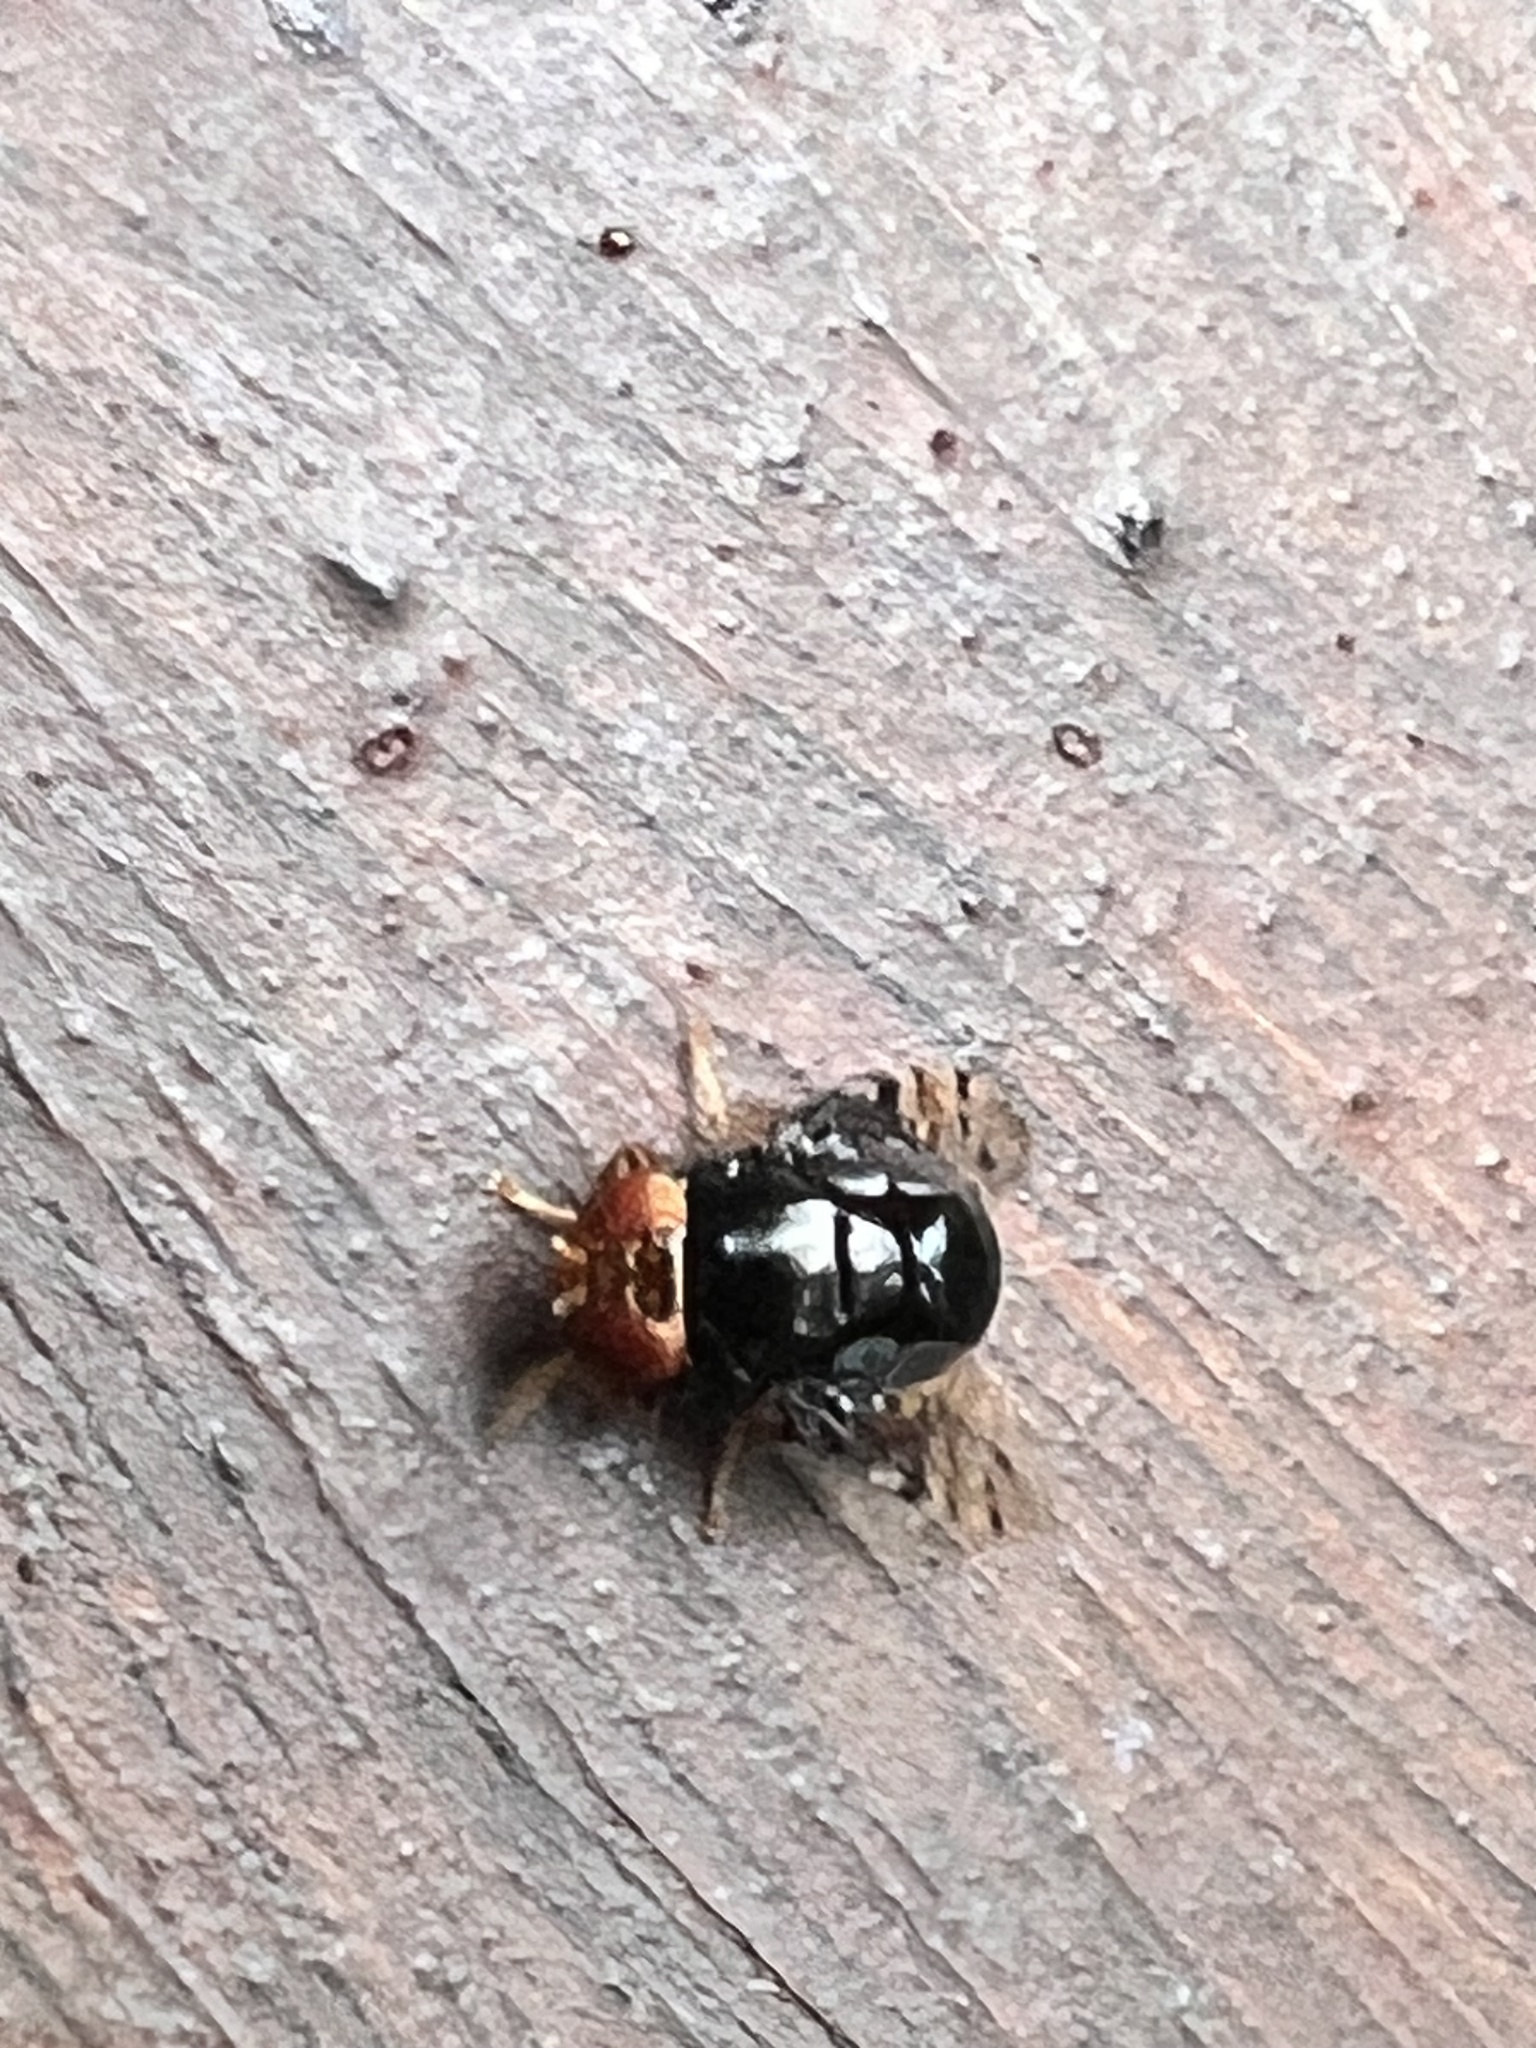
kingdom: Animalia
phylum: Arthropoda
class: Insecta
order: Diptera
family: Platystomatidae
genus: Naupoda
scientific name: Naupoda regina
